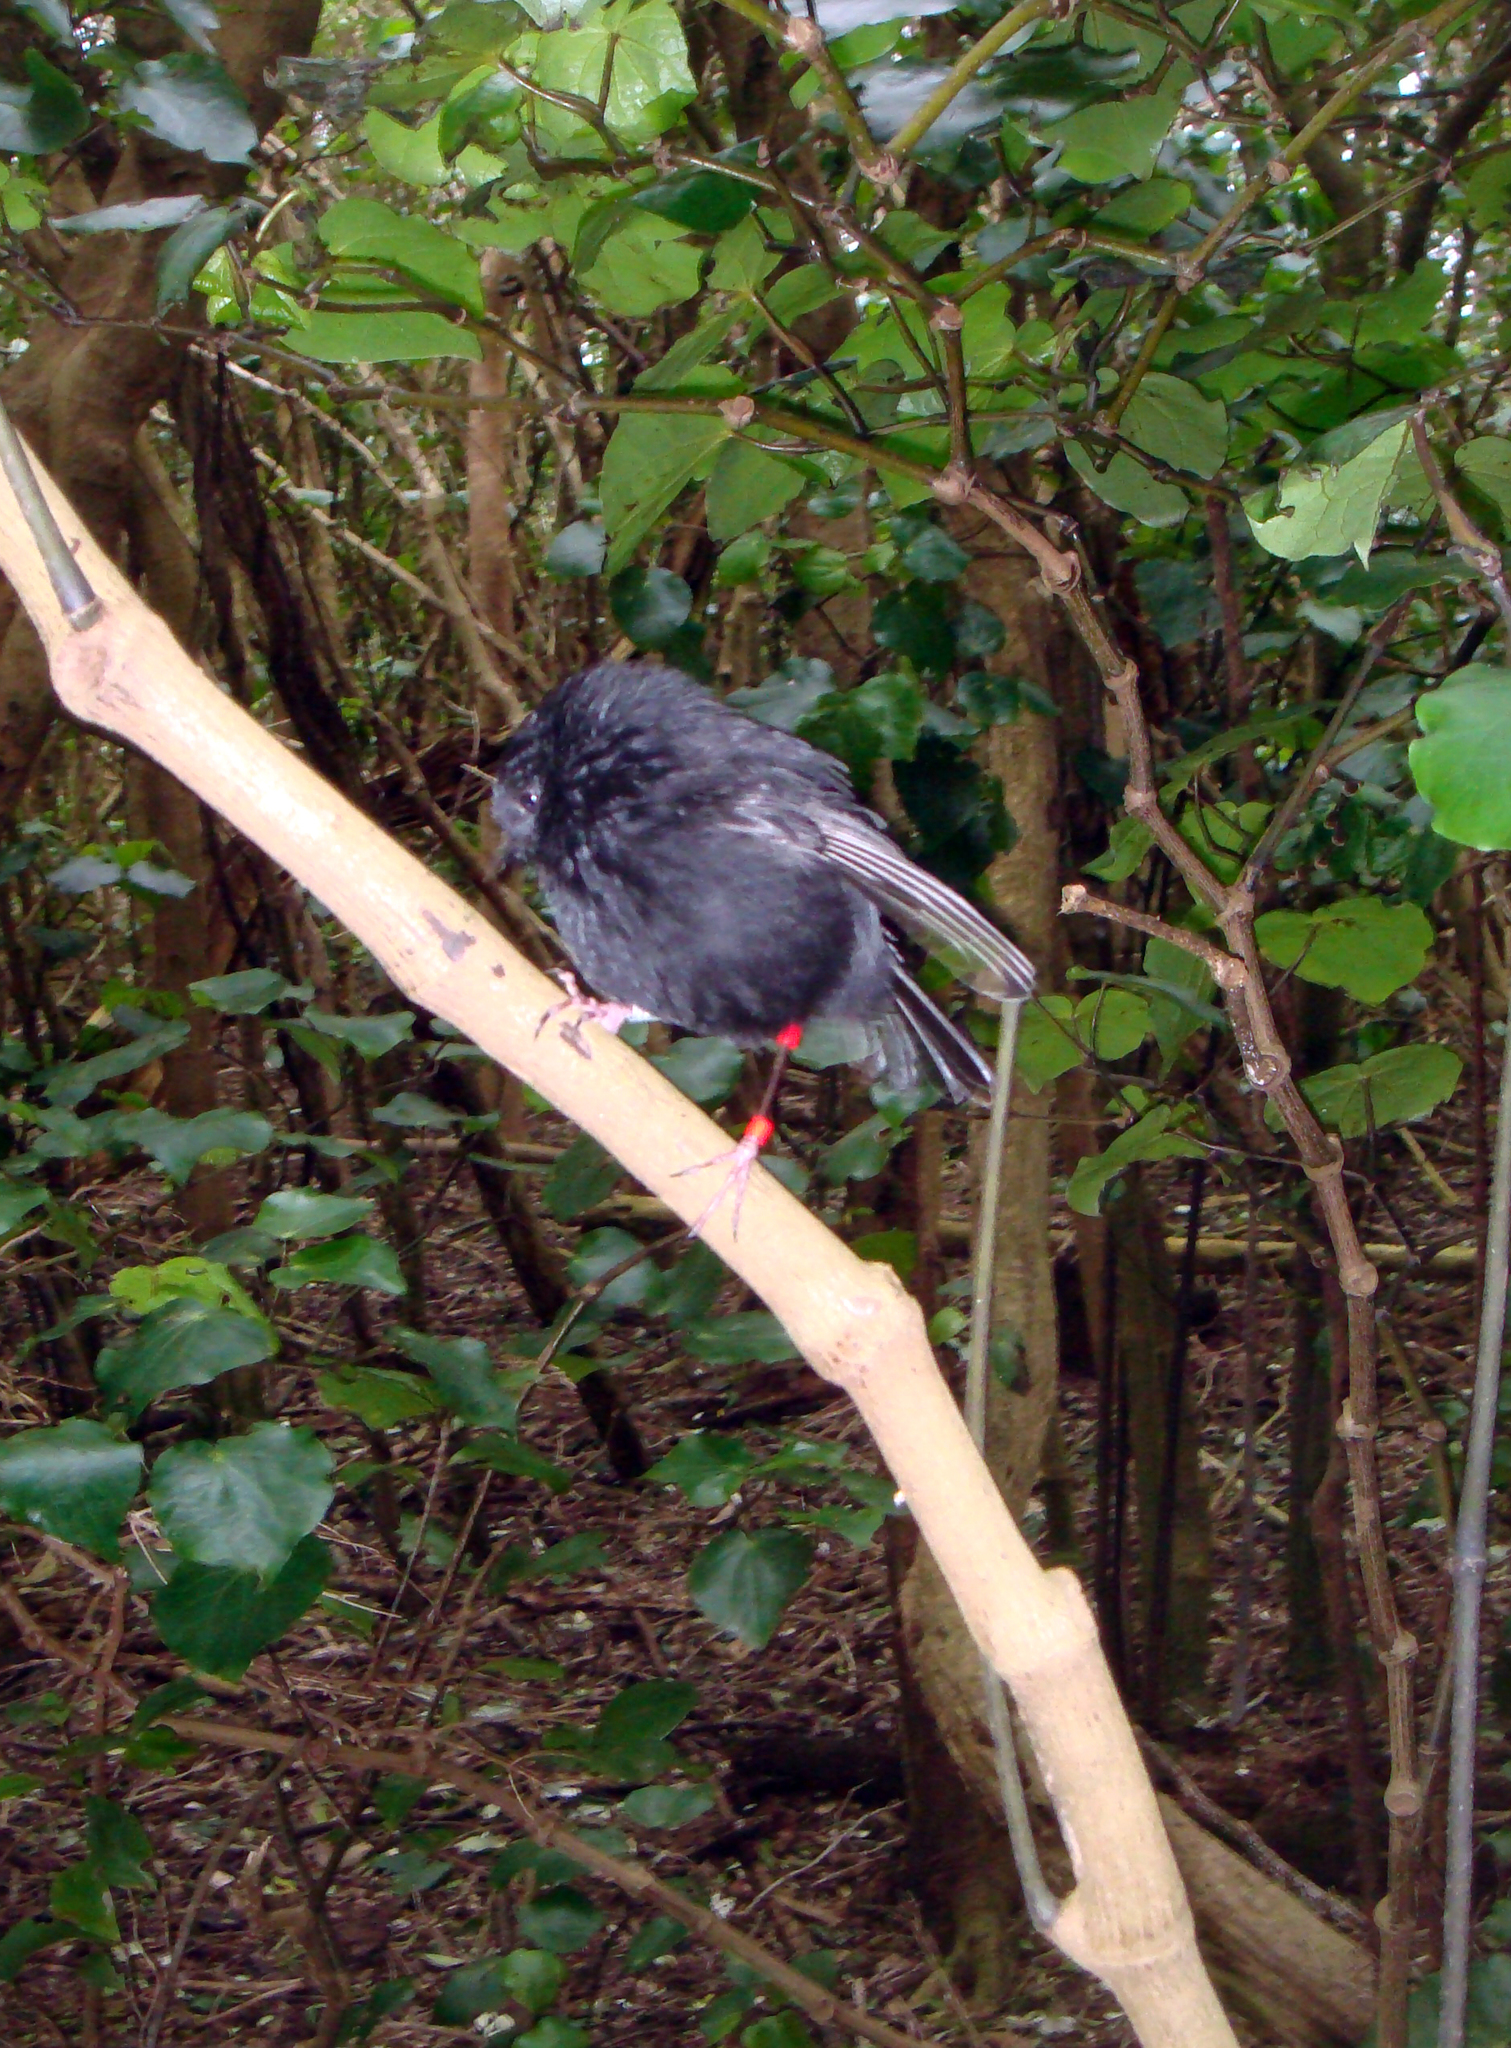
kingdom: Animalia
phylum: Chordata
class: Aves
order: Passeriformes
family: Petroicidae
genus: Petroica
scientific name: Petroica traversi
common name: Black robin
